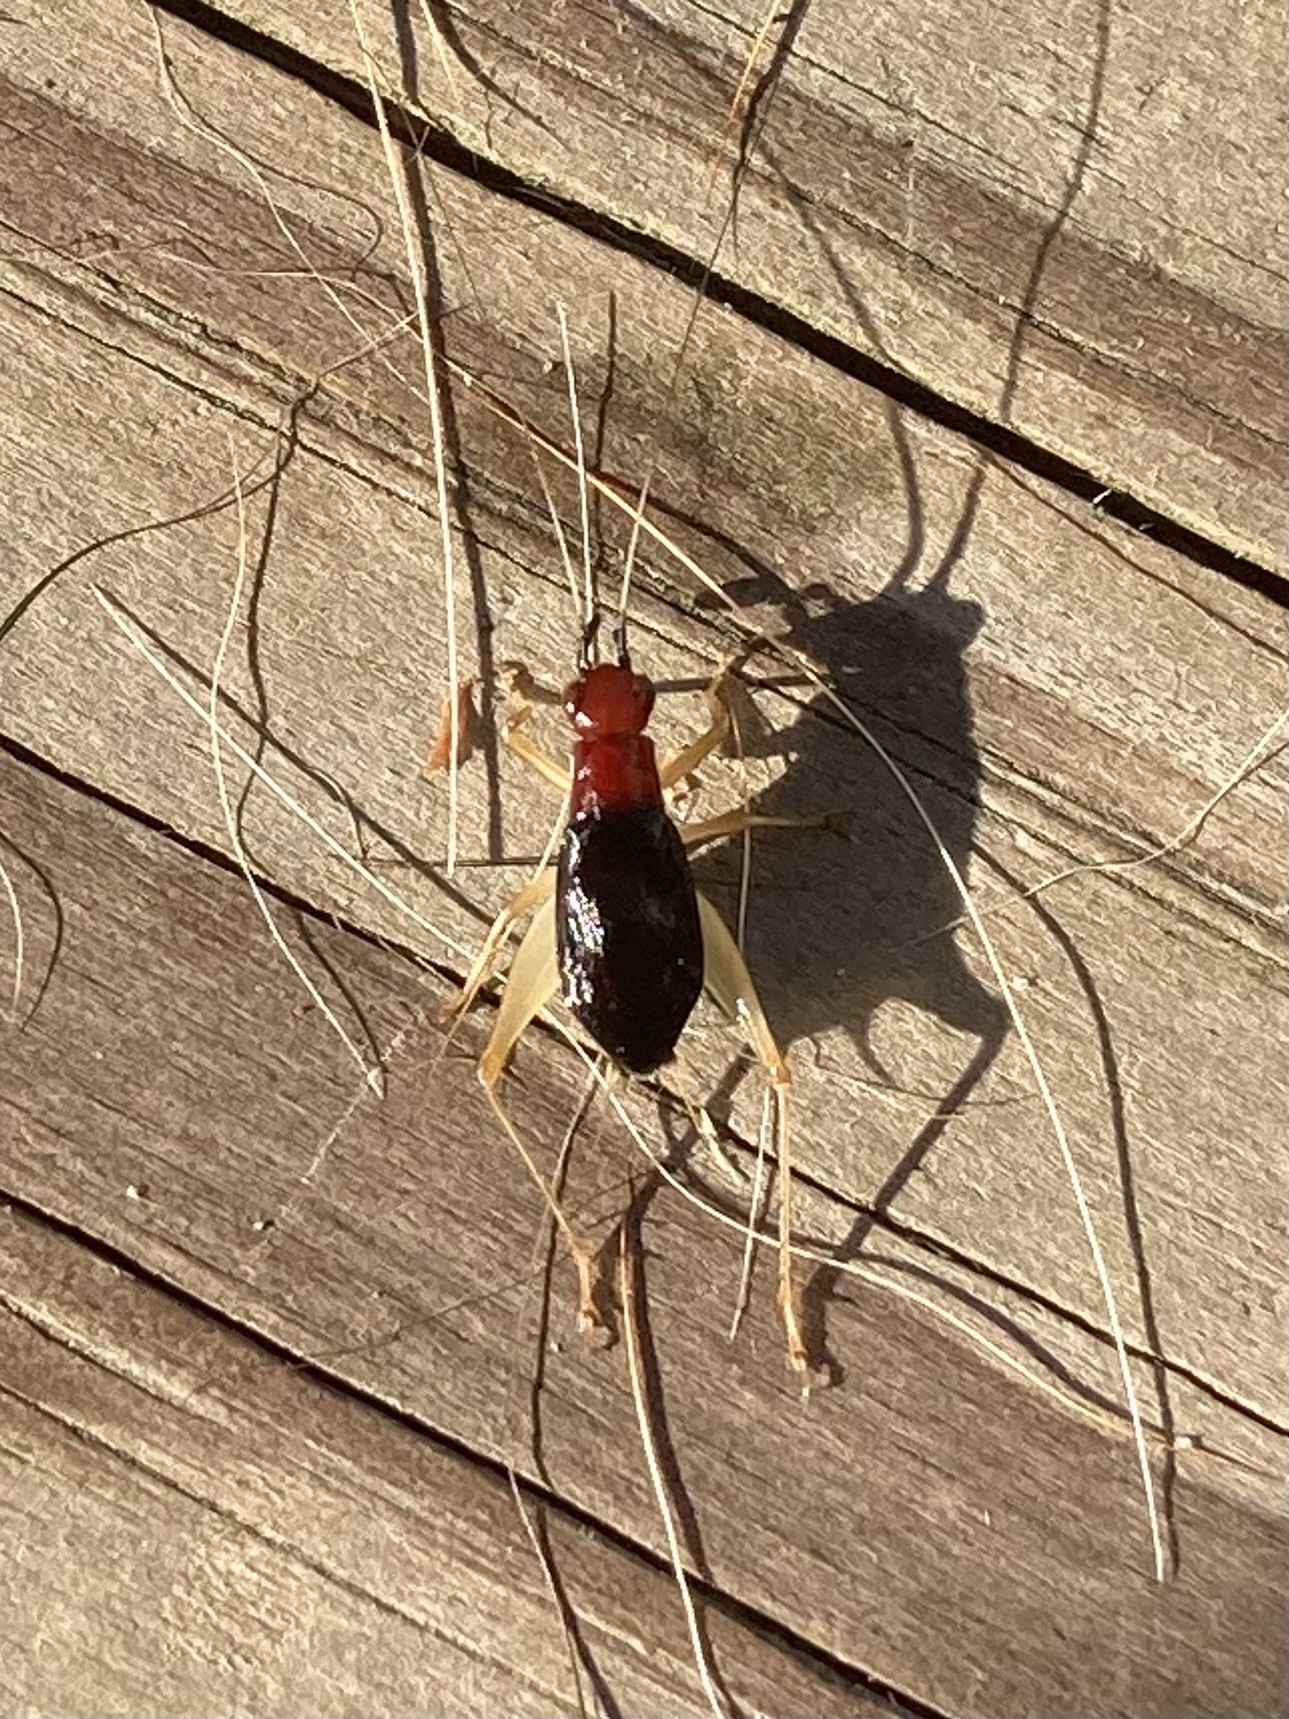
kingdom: Animalia
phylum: Arthropoda
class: Insecta
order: Orthoptera
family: Trigonidiidae
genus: Phyllopalpus
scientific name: Phyllopalpus pulchellus
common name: Handsome trig
